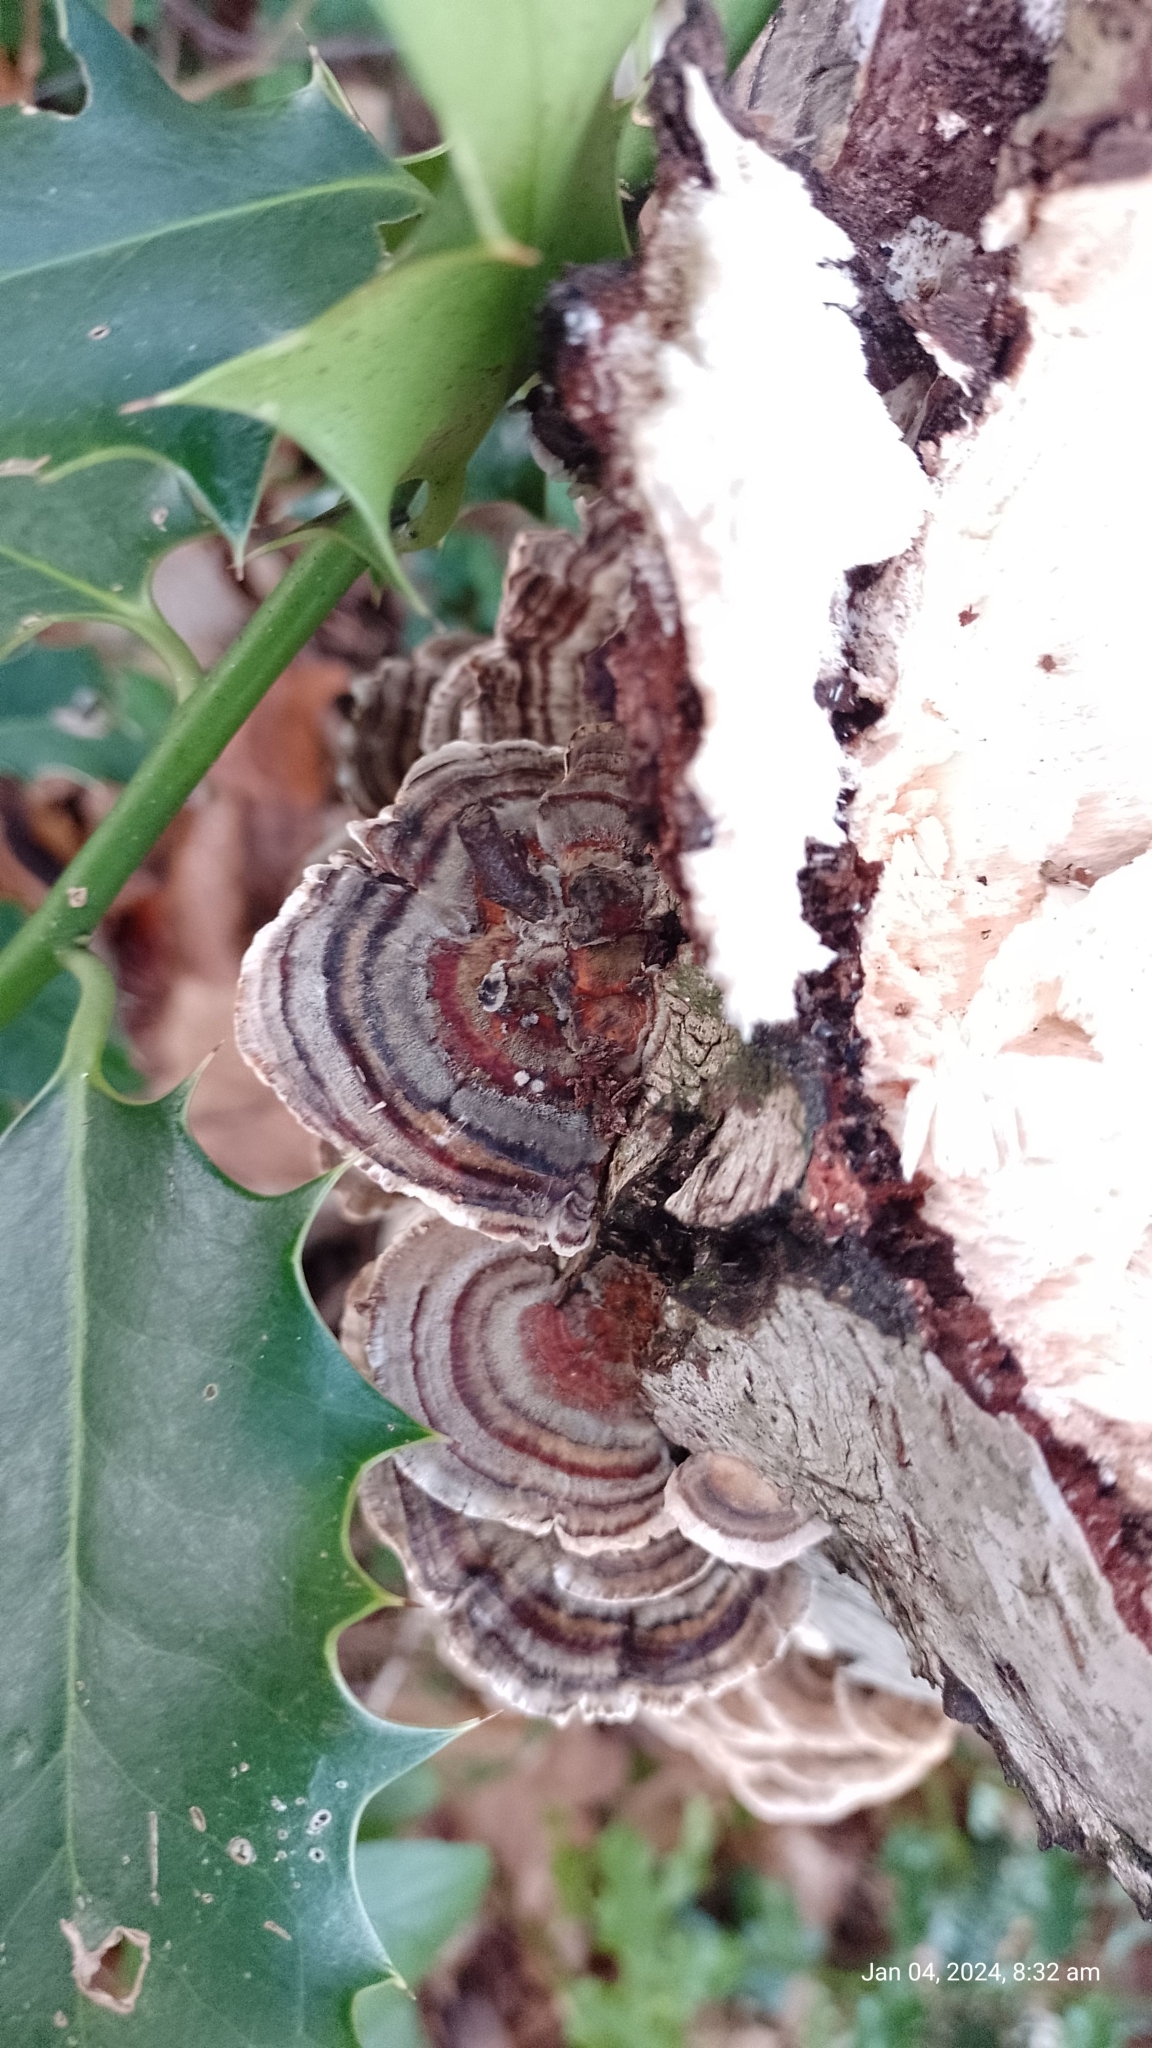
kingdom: Fungi
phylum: Basidiomycota
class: Agaricomycetes
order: Polyporales
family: Polyporaceae
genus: Trametes
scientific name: Trametes versicolor
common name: Turkeytail
